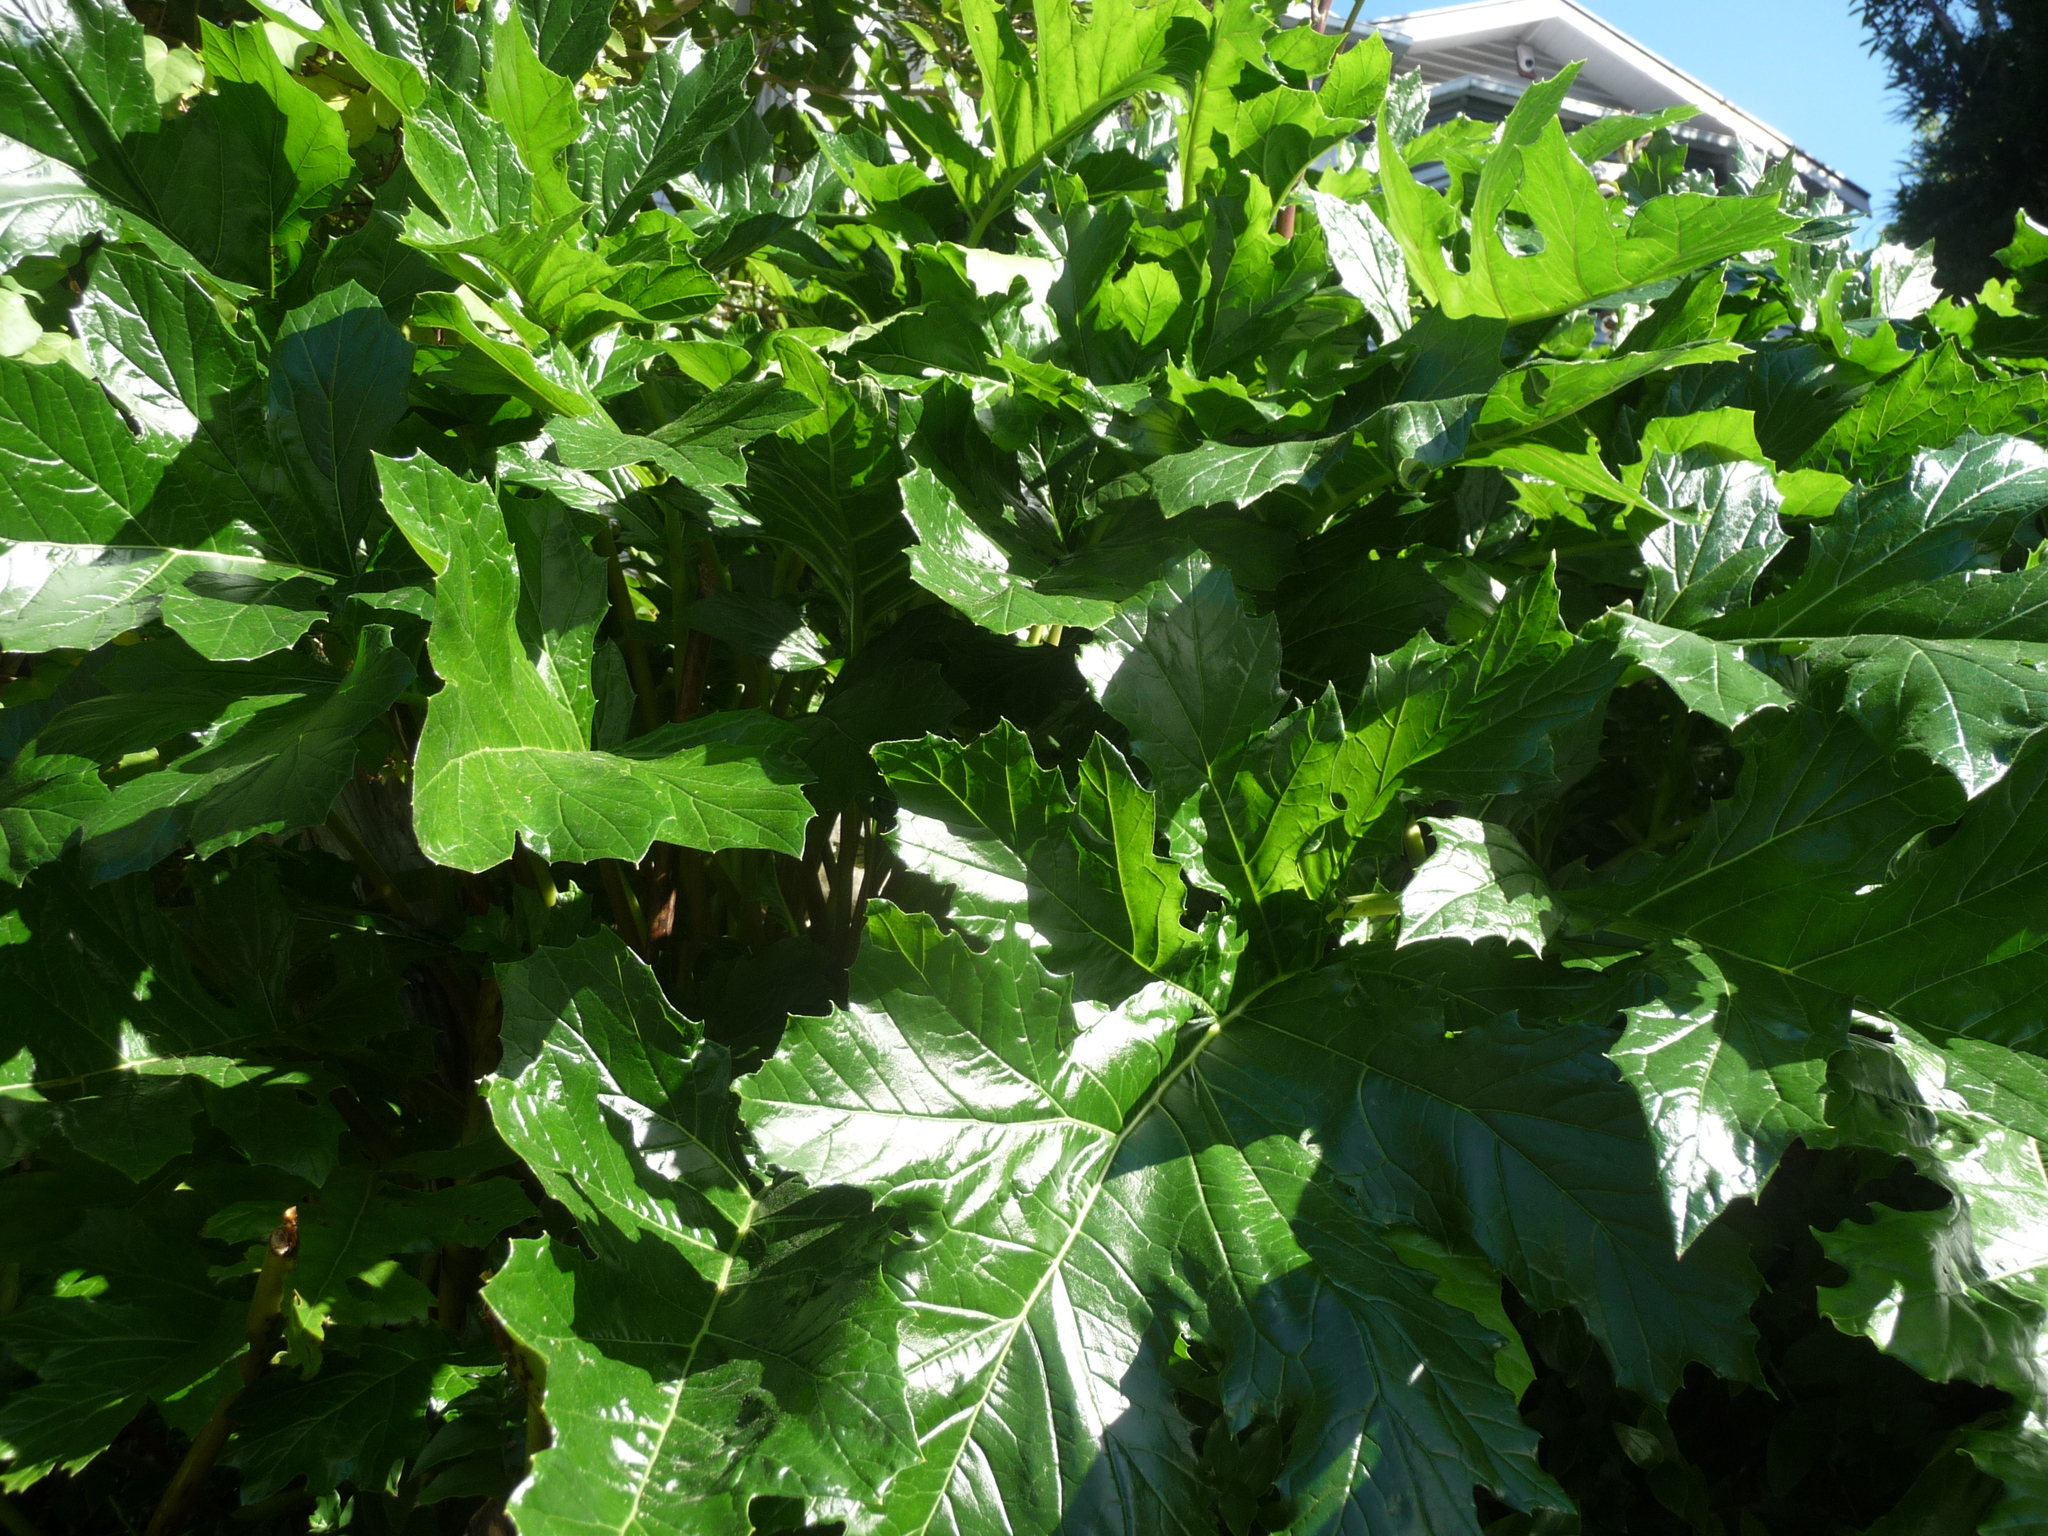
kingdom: Plantae
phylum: Tracheophyta
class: Magnoliopsida
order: Lamiales
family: Acanthaceae
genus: Acanthus
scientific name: Acanthus mollis
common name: Bear's-breech
